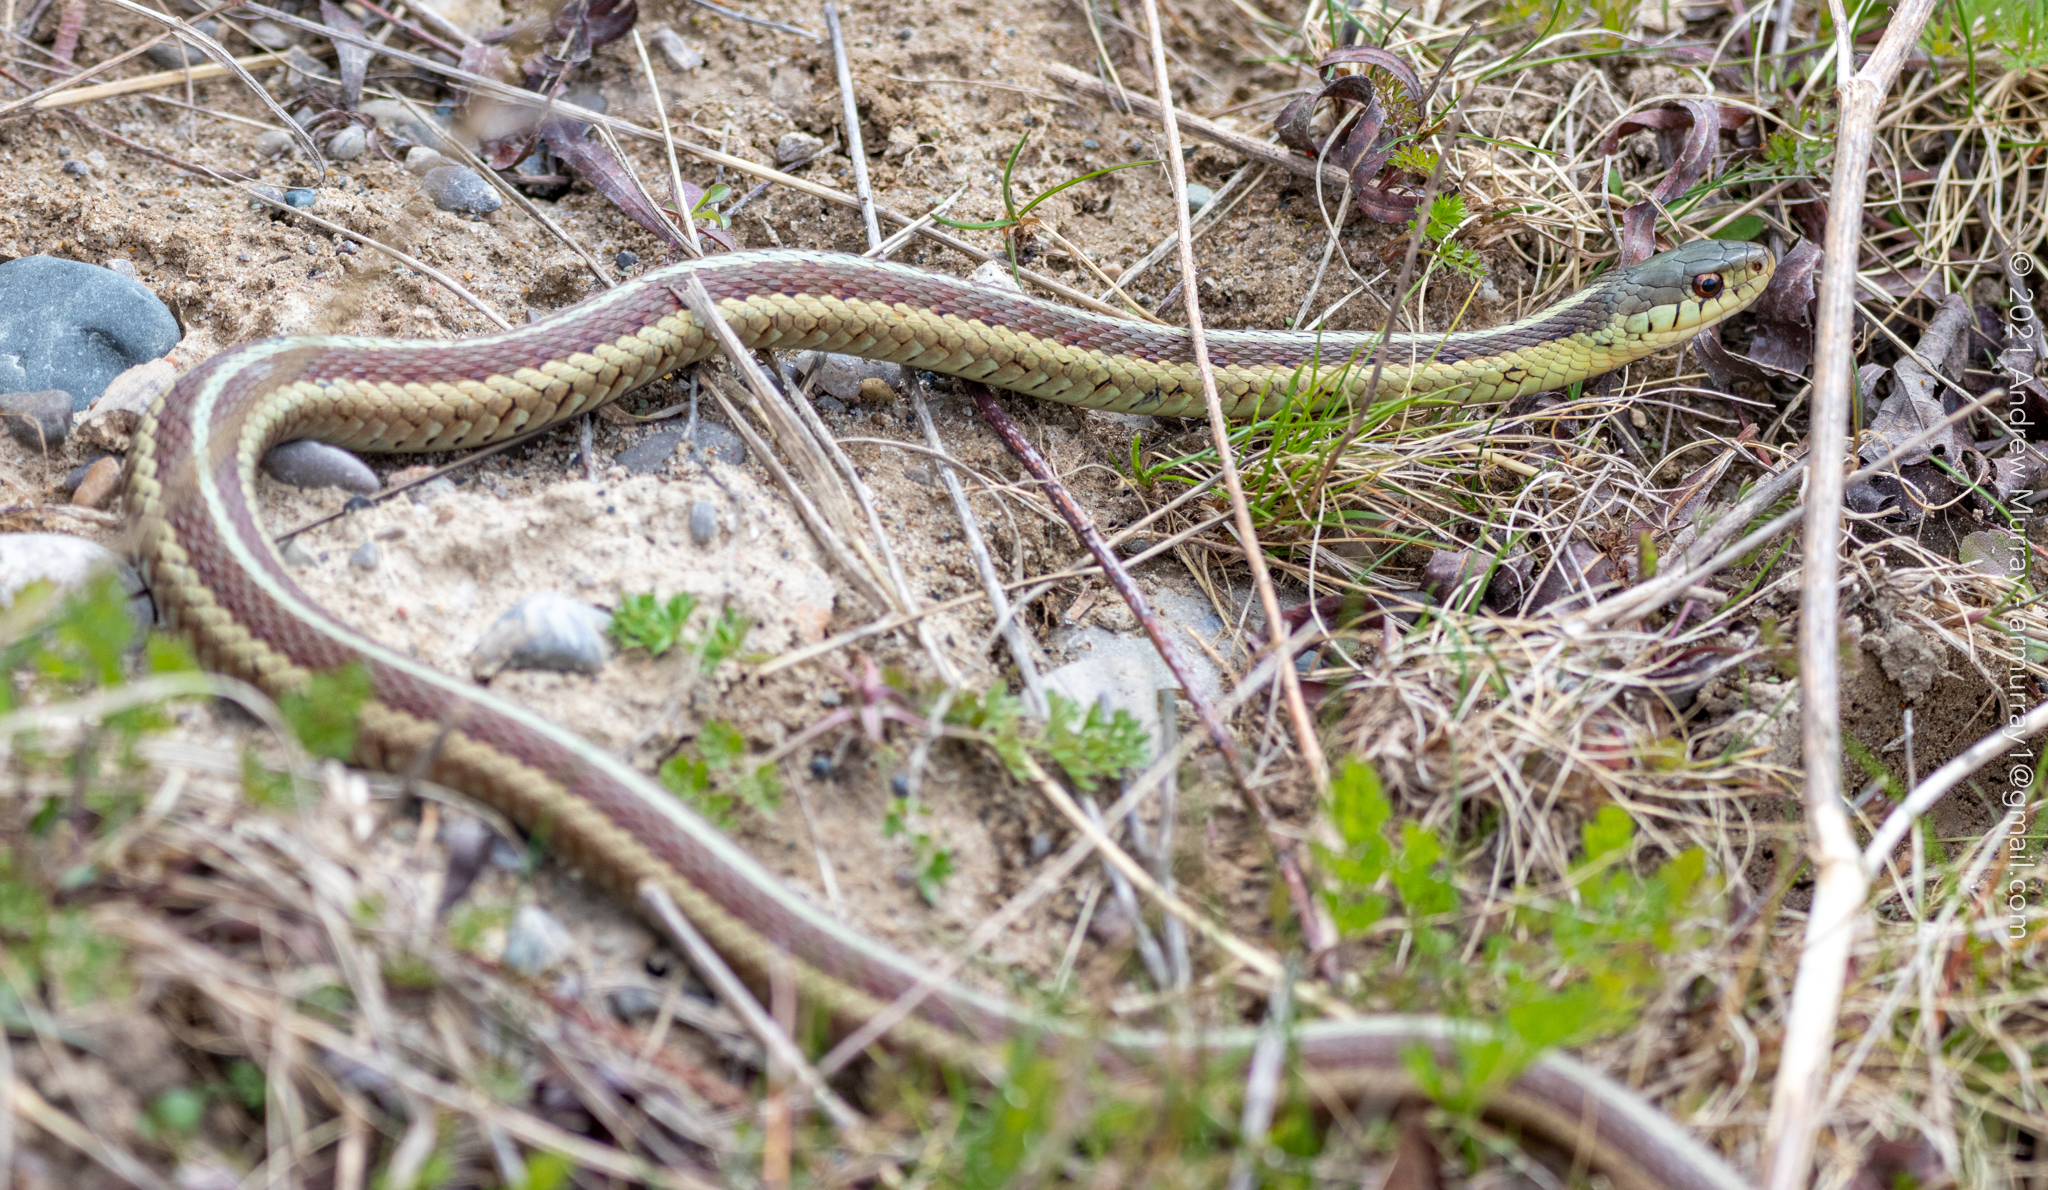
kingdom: Animalia
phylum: Chordata
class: Squamata
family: Colubridae
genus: Thamnophis
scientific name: Thamnophis sirtalis
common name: Common garter snake
